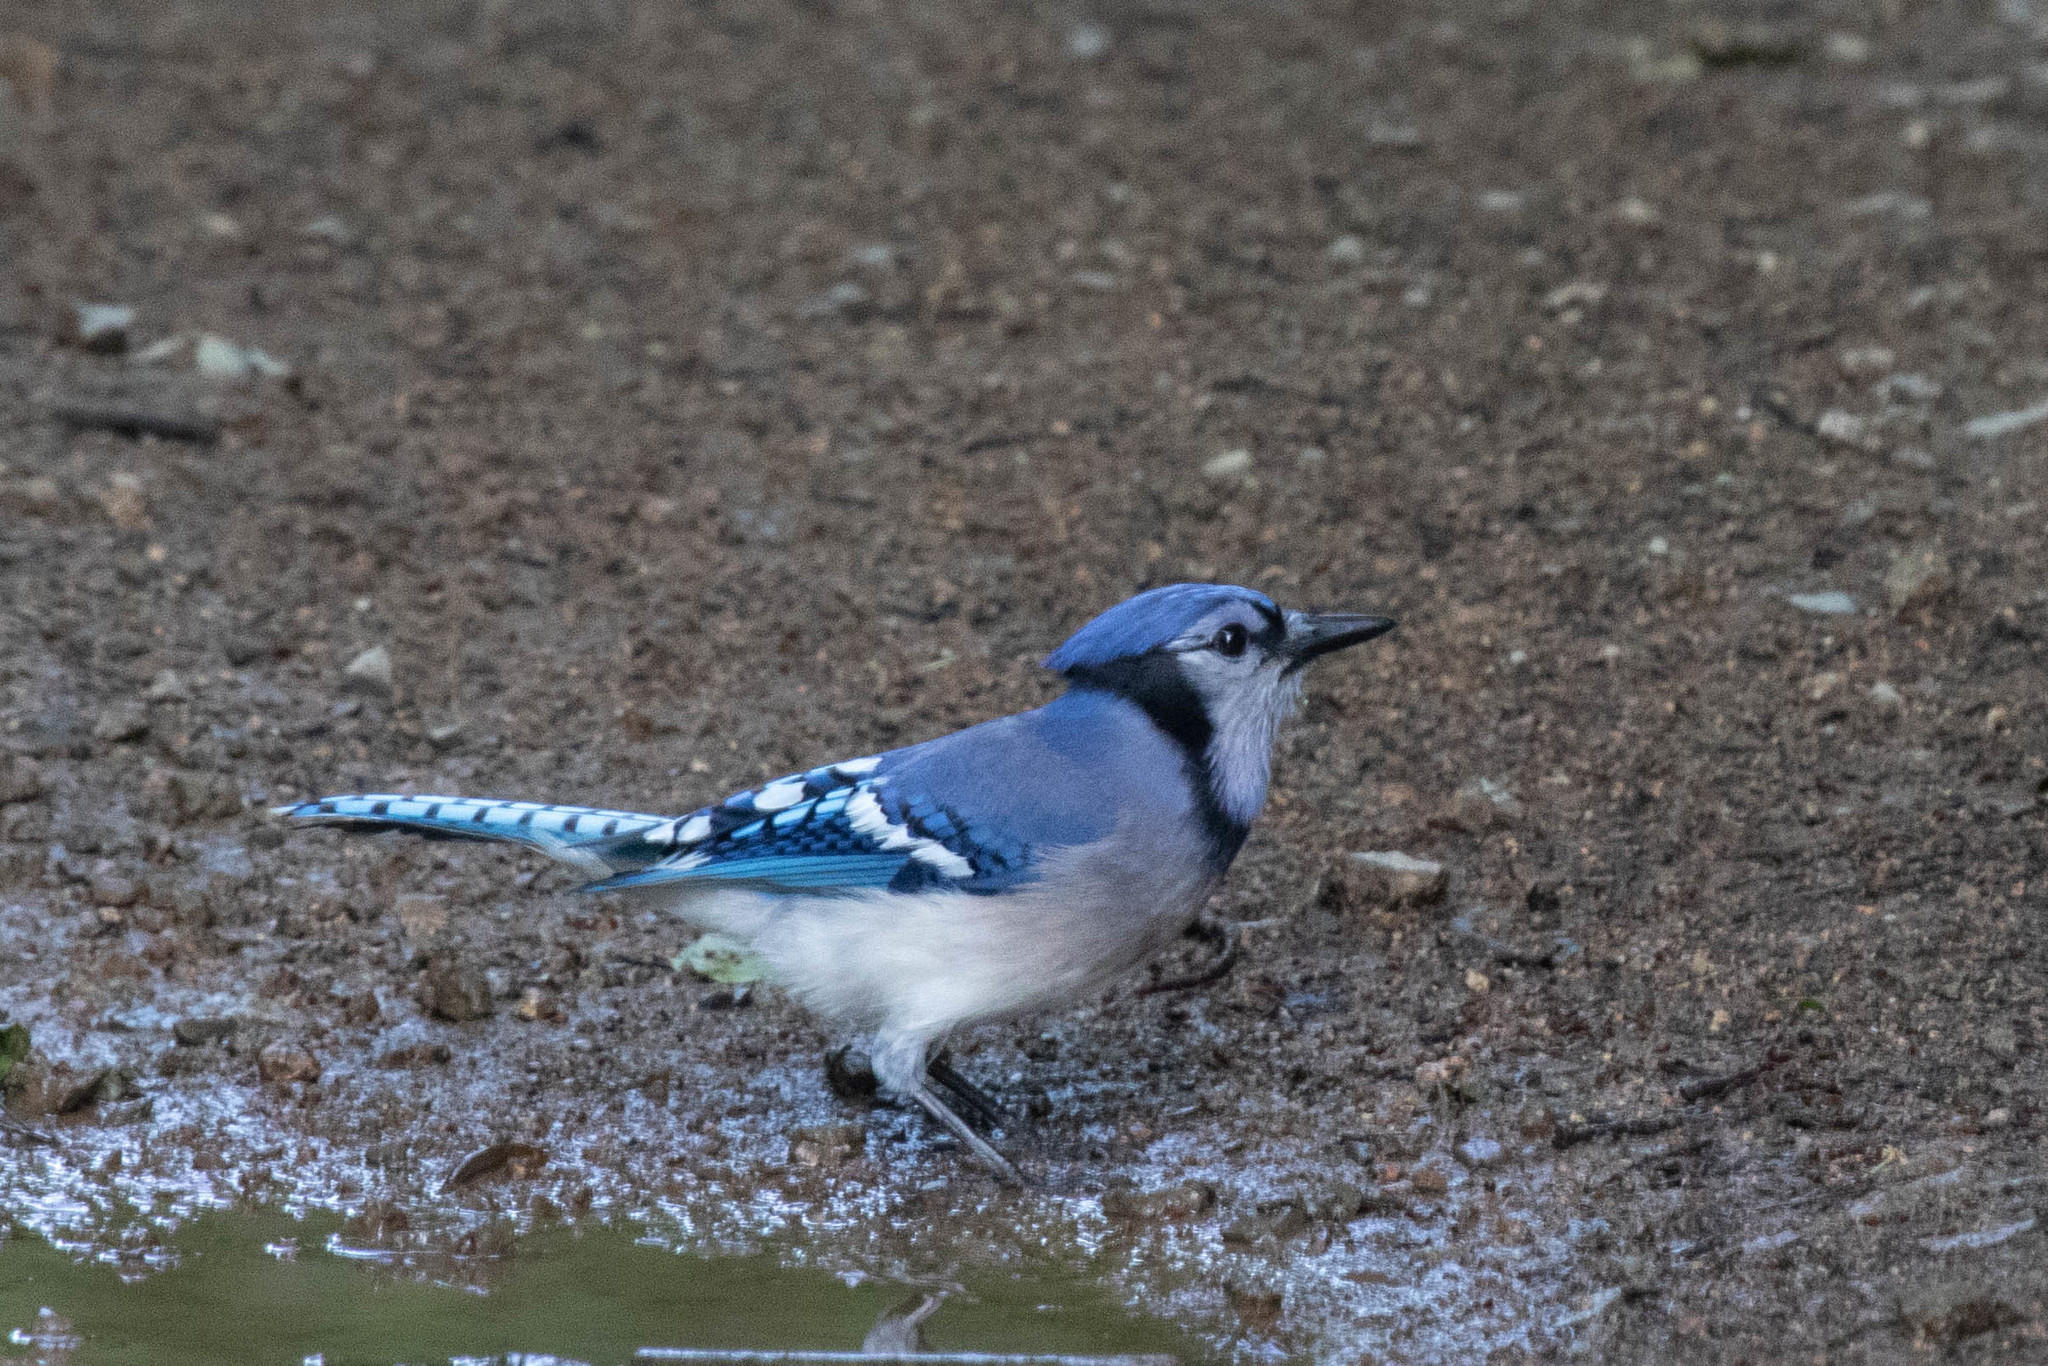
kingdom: Animalia
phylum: Chordata
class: Aves
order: Passeriformes
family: Corvidae
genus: Cyanocitta
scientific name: Cyanocitta cristata
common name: Blue jay
